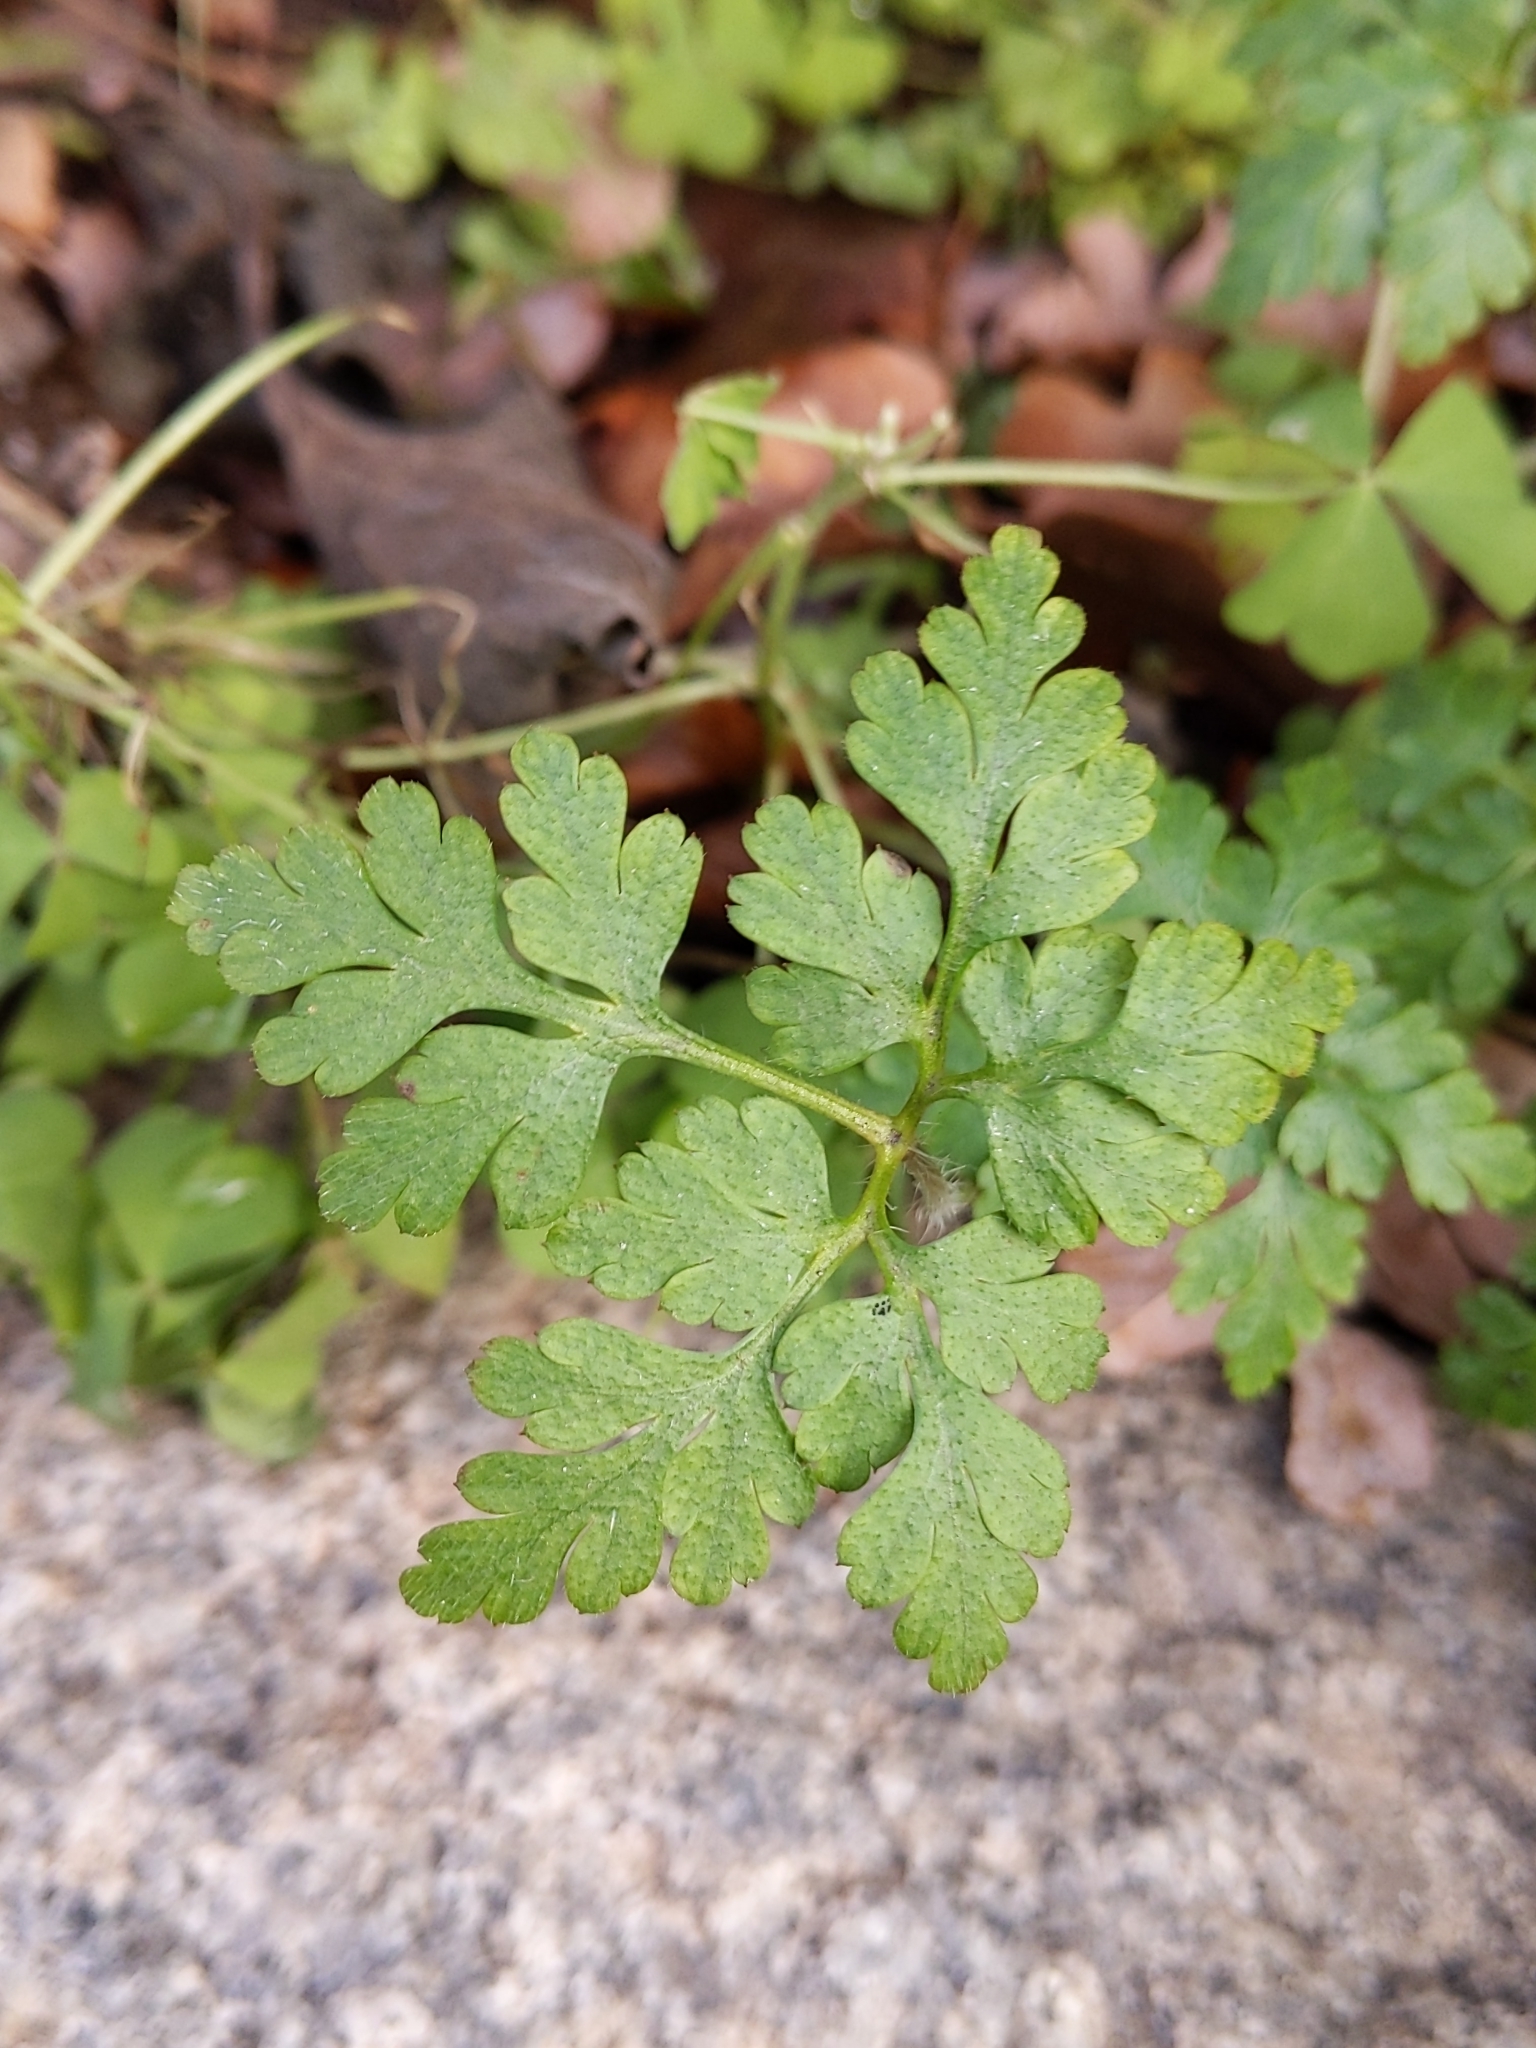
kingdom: Plantae
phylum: Tracheophyta
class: Magnoliopsida
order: Geraniales
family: Geraniaceae
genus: Geranium
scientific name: Geranium robertianum
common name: Herb-robert
